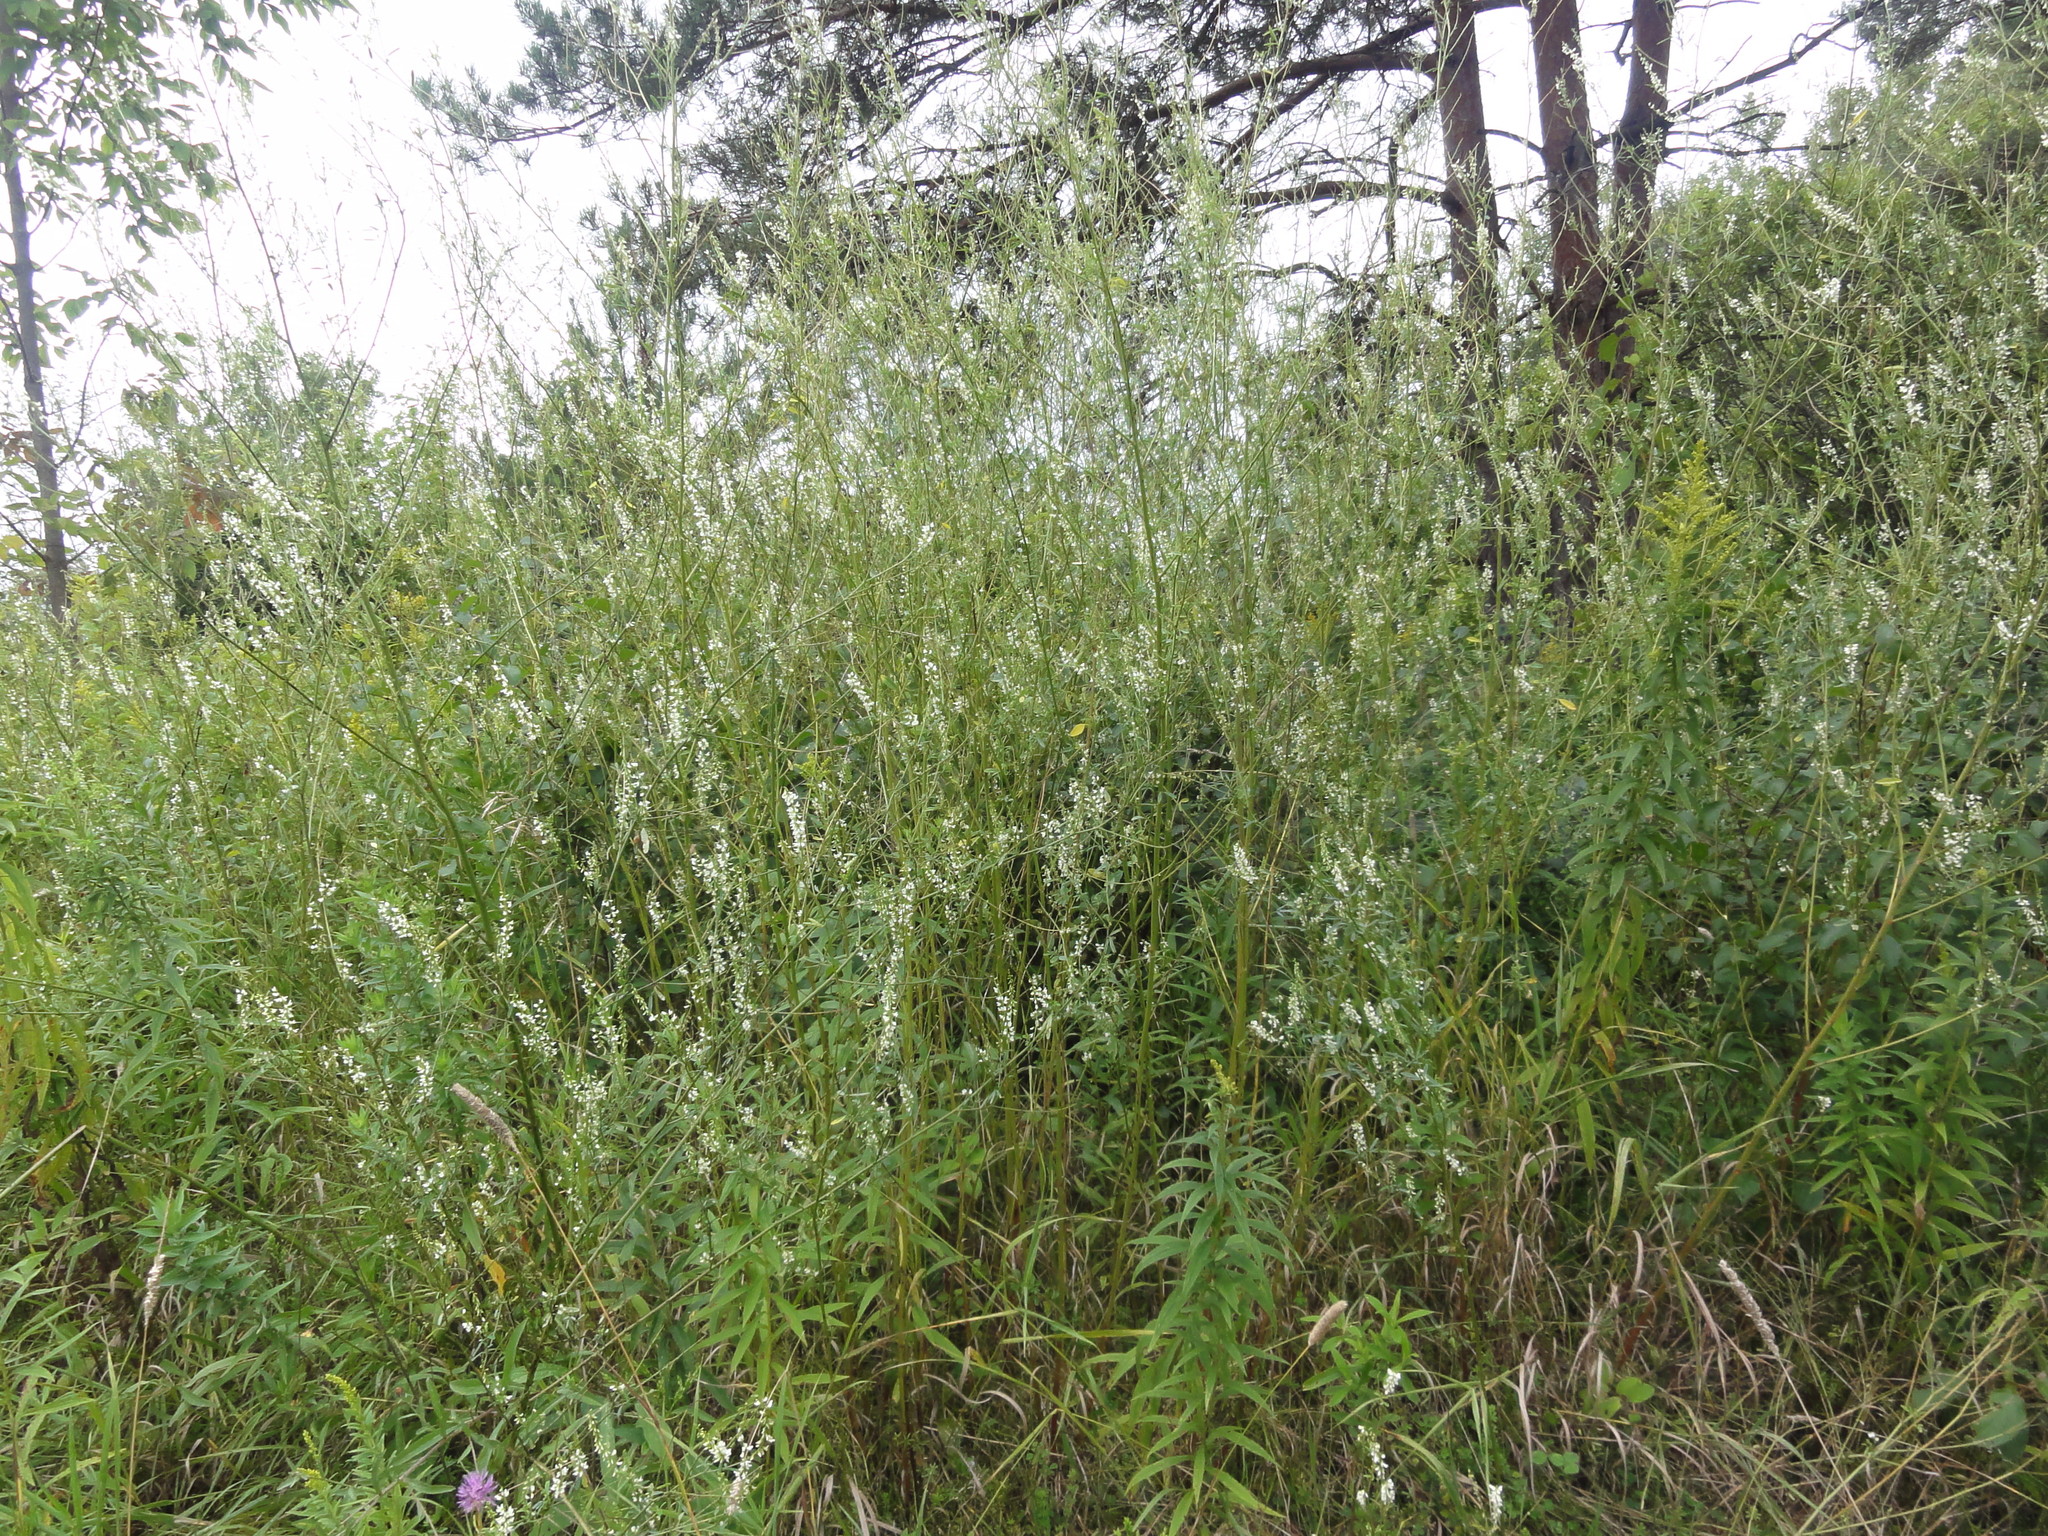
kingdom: Plantae
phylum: Tracheophyta
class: Magnoliopsida
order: Fabales
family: Fabaceae
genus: Melilotus
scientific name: Melilotus albus
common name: White melilot
